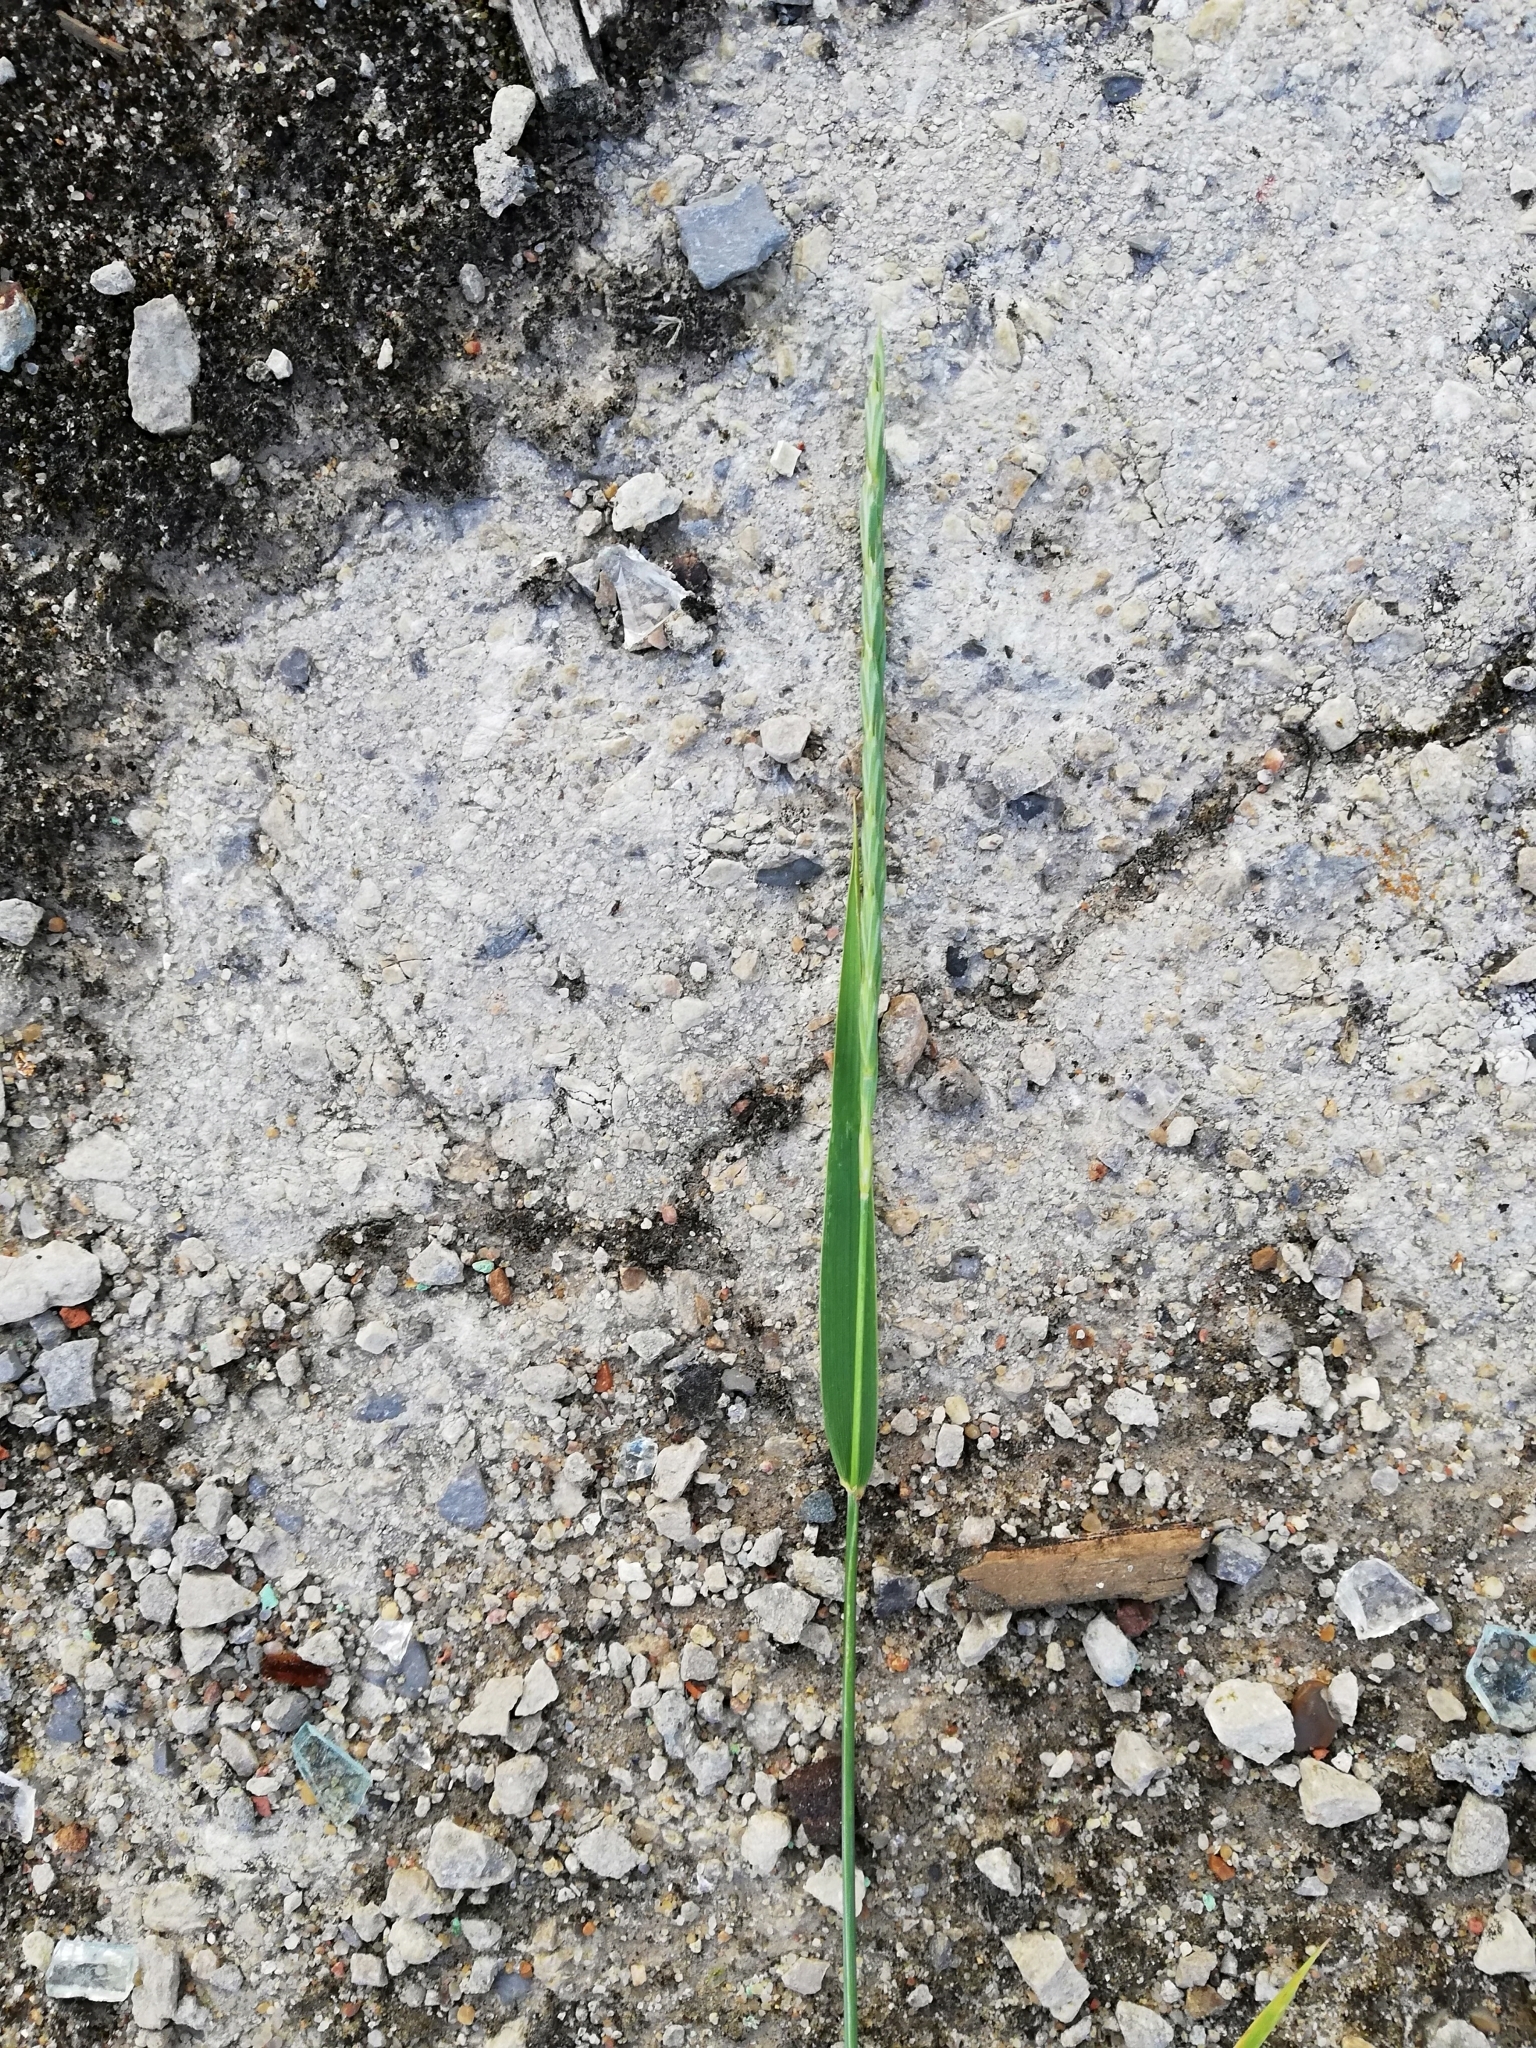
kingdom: Plantae
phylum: Tracheophyta
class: Liliopsida
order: Poales
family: Poaceae
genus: Elymus
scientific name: Elymus repens
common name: Quackgrass
